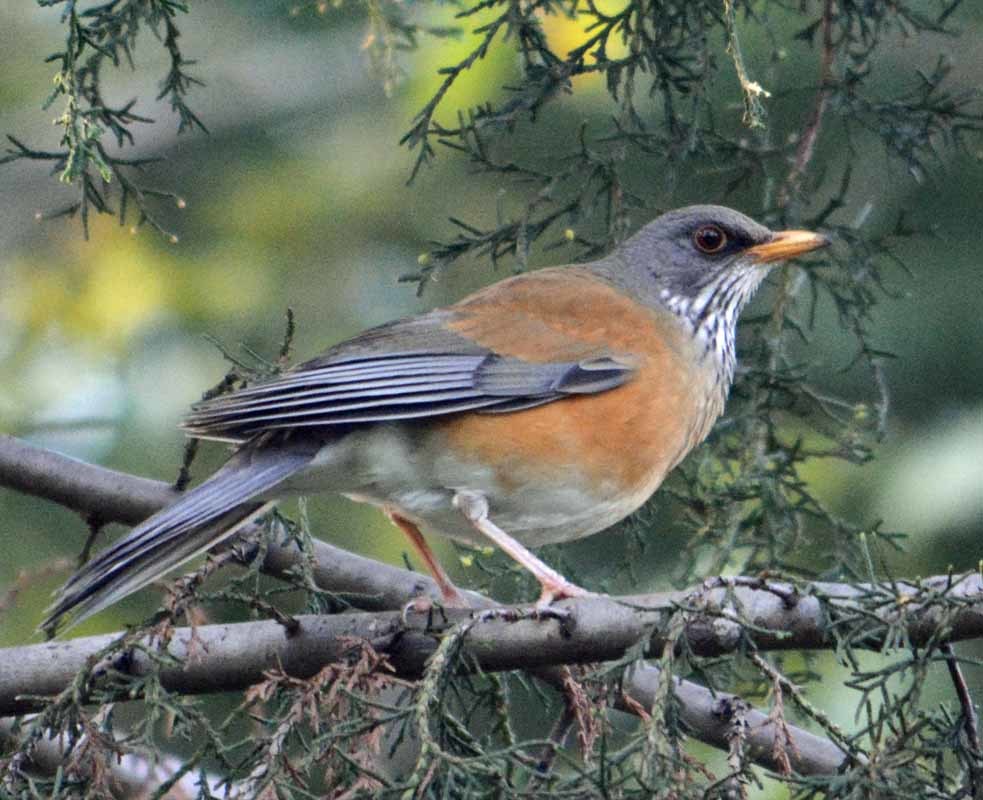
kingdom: Animalia
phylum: Chordata
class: Aves
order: Passeriformes
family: Turdidae
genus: Turdus
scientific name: Turdus rufopalliatus
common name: Rufous-backed robin
